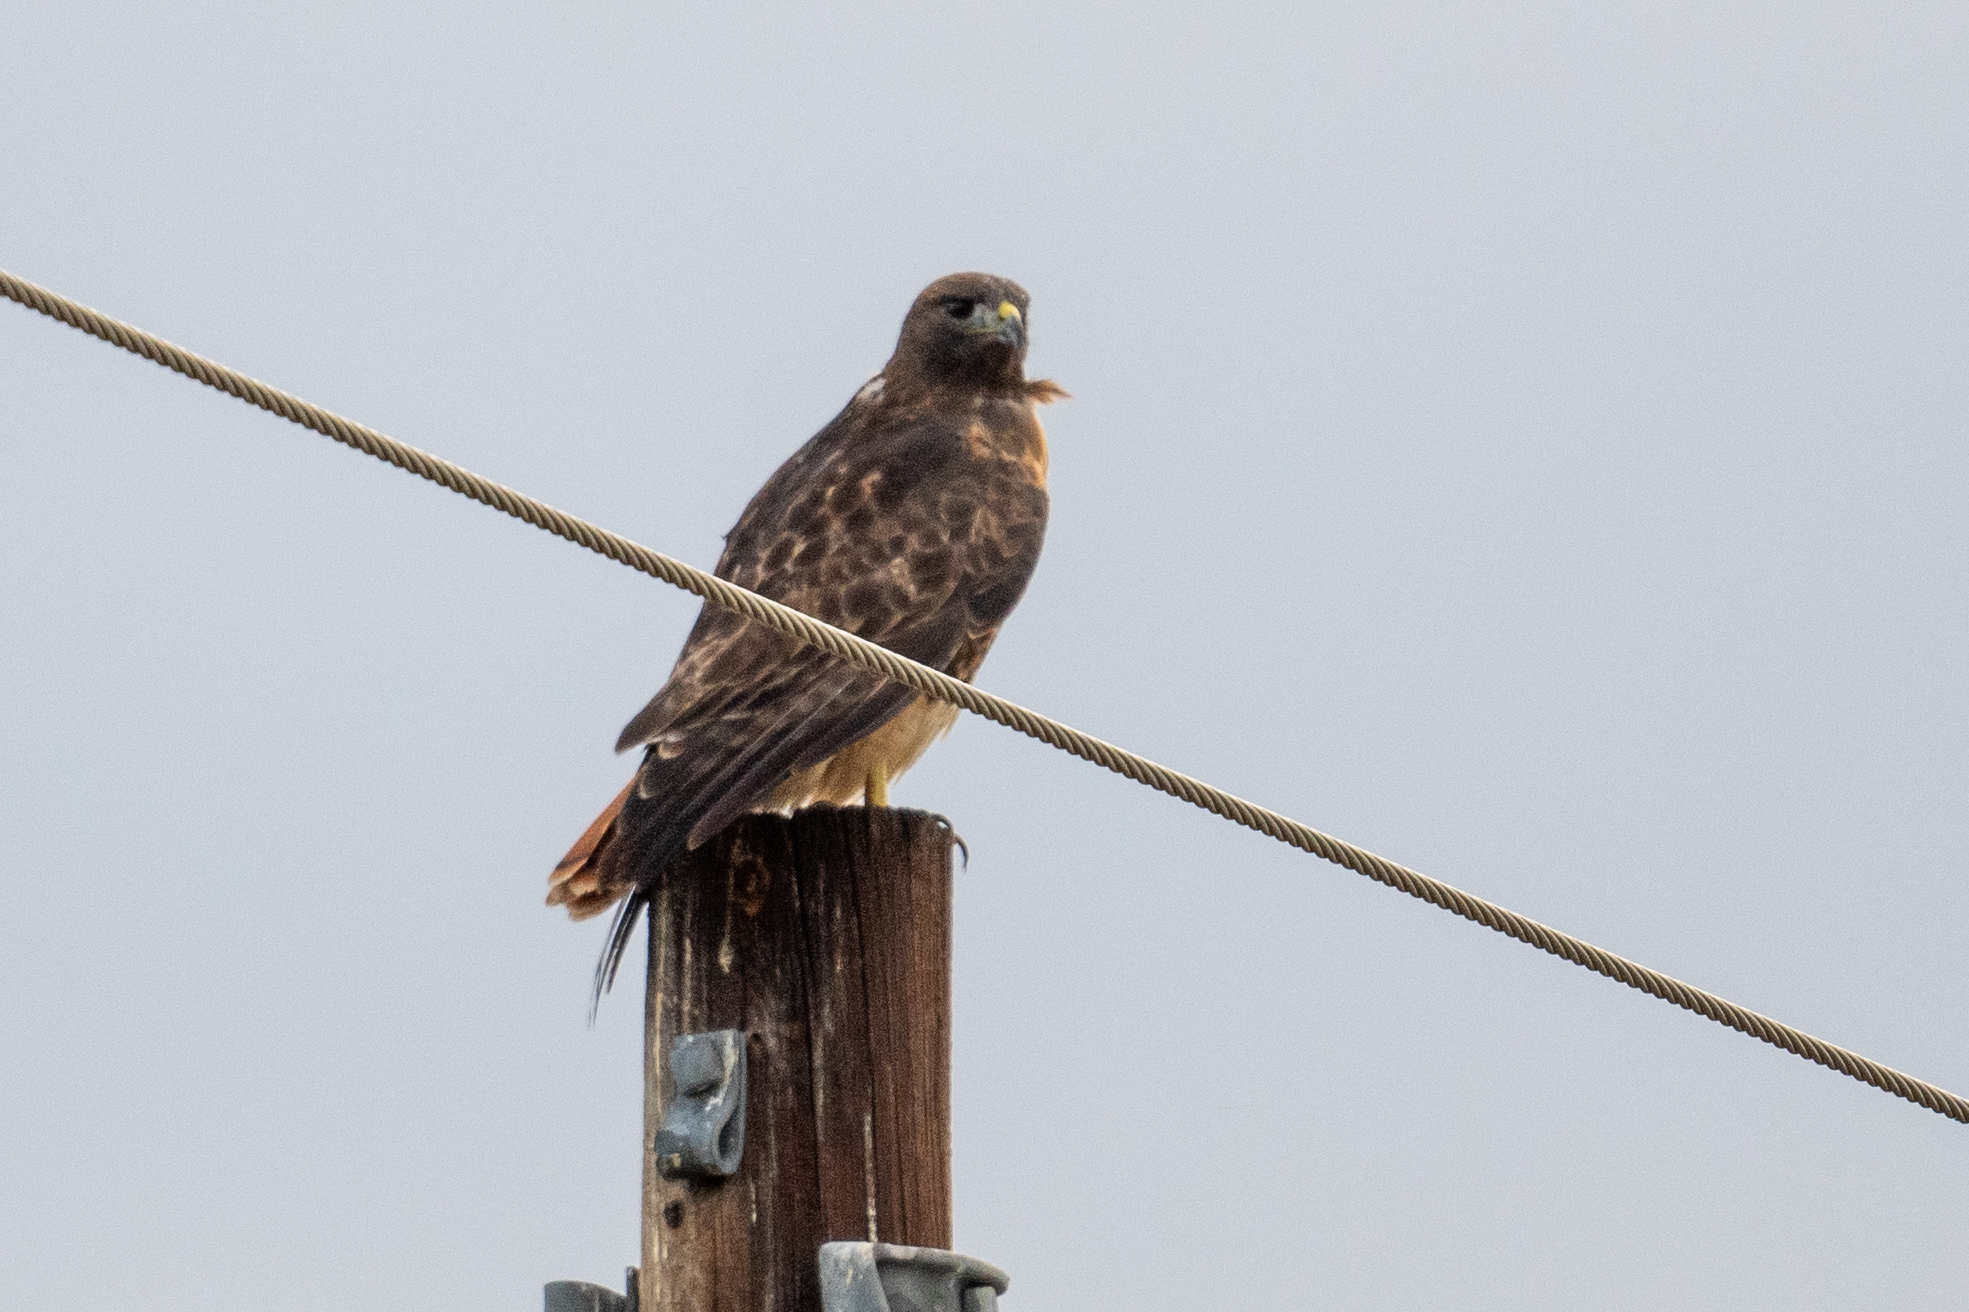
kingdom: Animalia
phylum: Chordata
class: Aves
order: Accipitriformes
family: Accipitridae
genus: Buteo
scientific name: Buteo jamaicensis
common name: Red-tailed hawk
